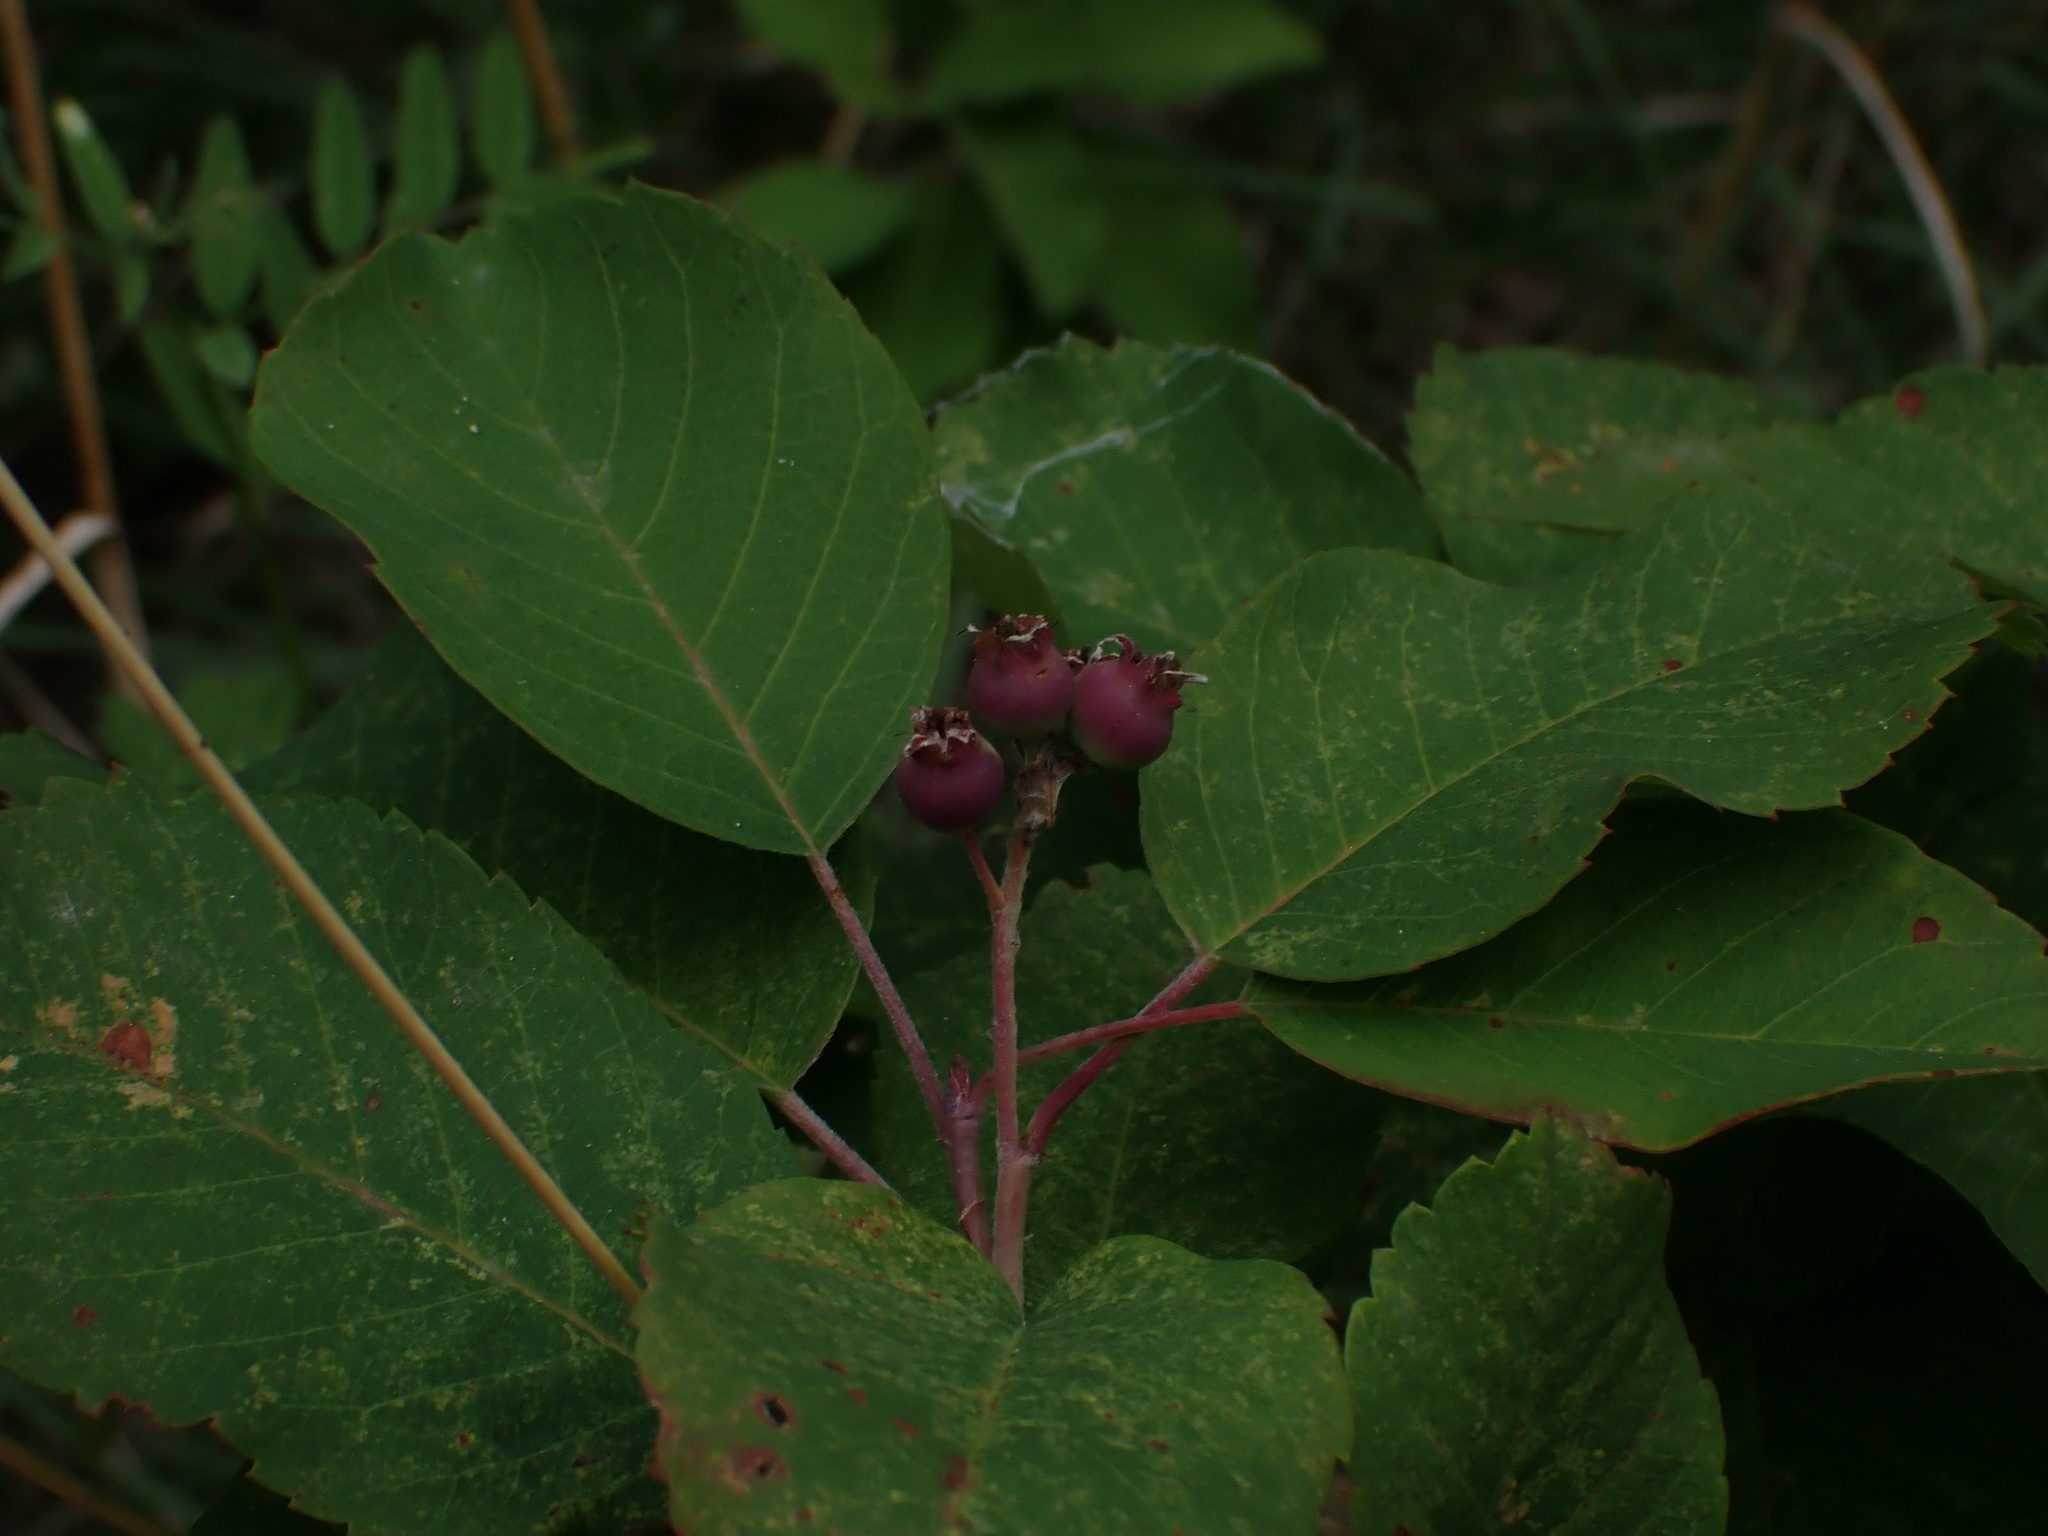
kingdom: Plantae
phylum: Tracheophyta
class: Magnoliopsida
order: Rosales
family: Rosaceae
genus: Amelanchier
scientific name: Amelanchier alnifolia
